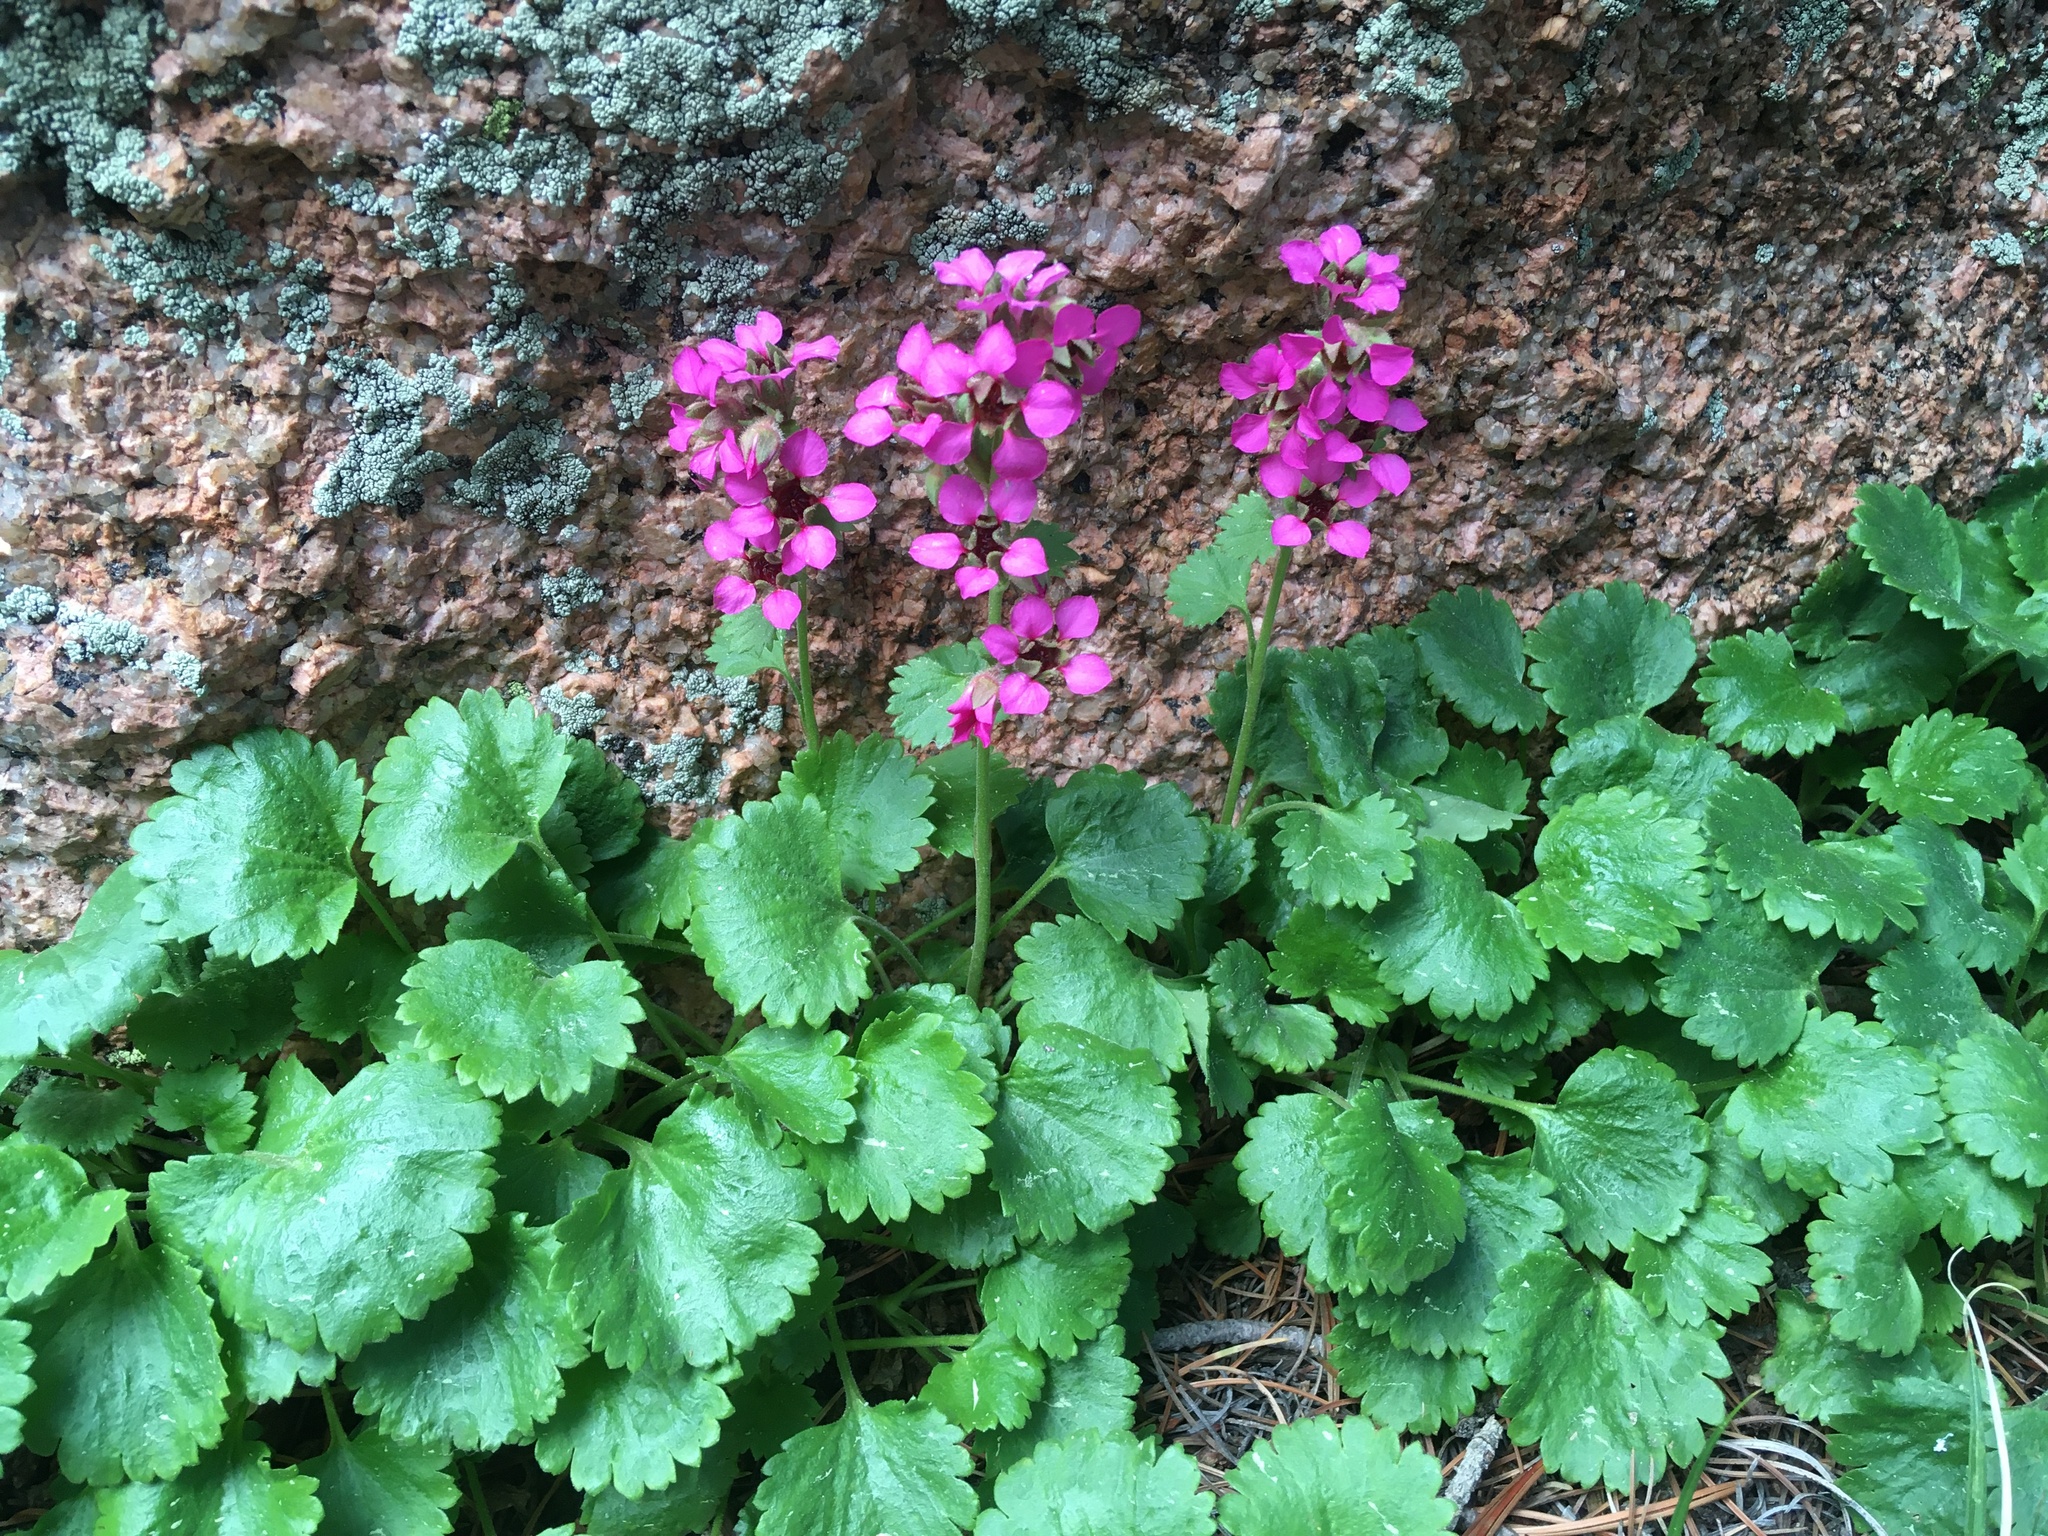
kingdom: Plantae
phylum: Tracheophyta
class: Magnoliopsida
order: Saxifragales
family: Saxifragaceae
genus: Telesonix
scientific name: Telesonix jamesii
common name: James's-saxifrage
